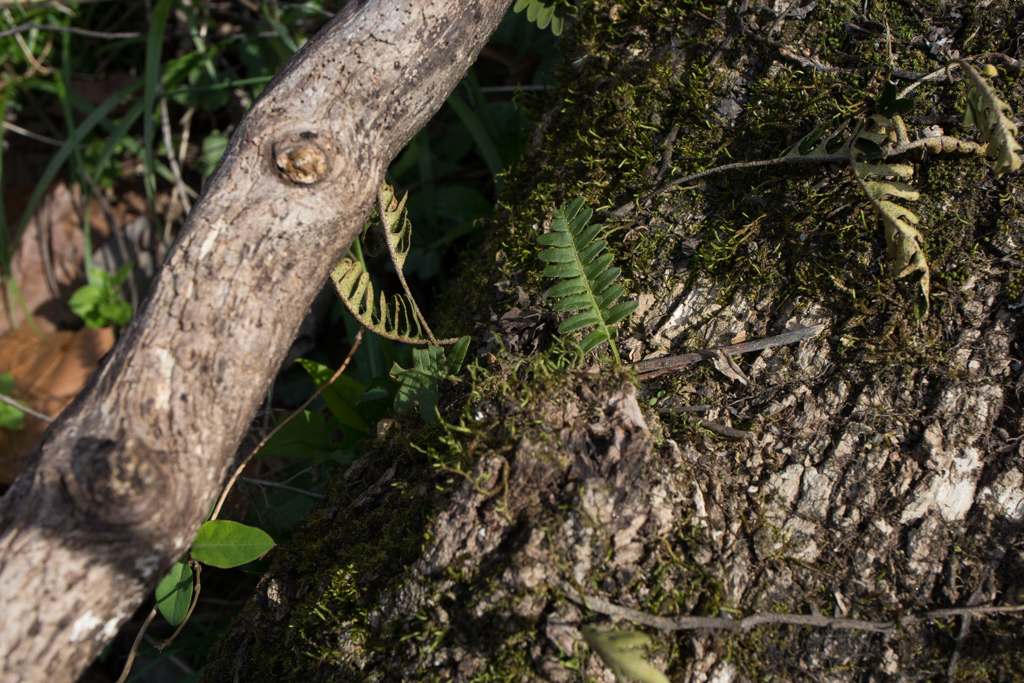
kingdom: Plantae
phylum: Tracheophyta
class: Polypodiopsida
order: Polypodiales
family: Polypodiaceae
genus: Pleopeltis
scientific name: Pleopeltis michauxiana
